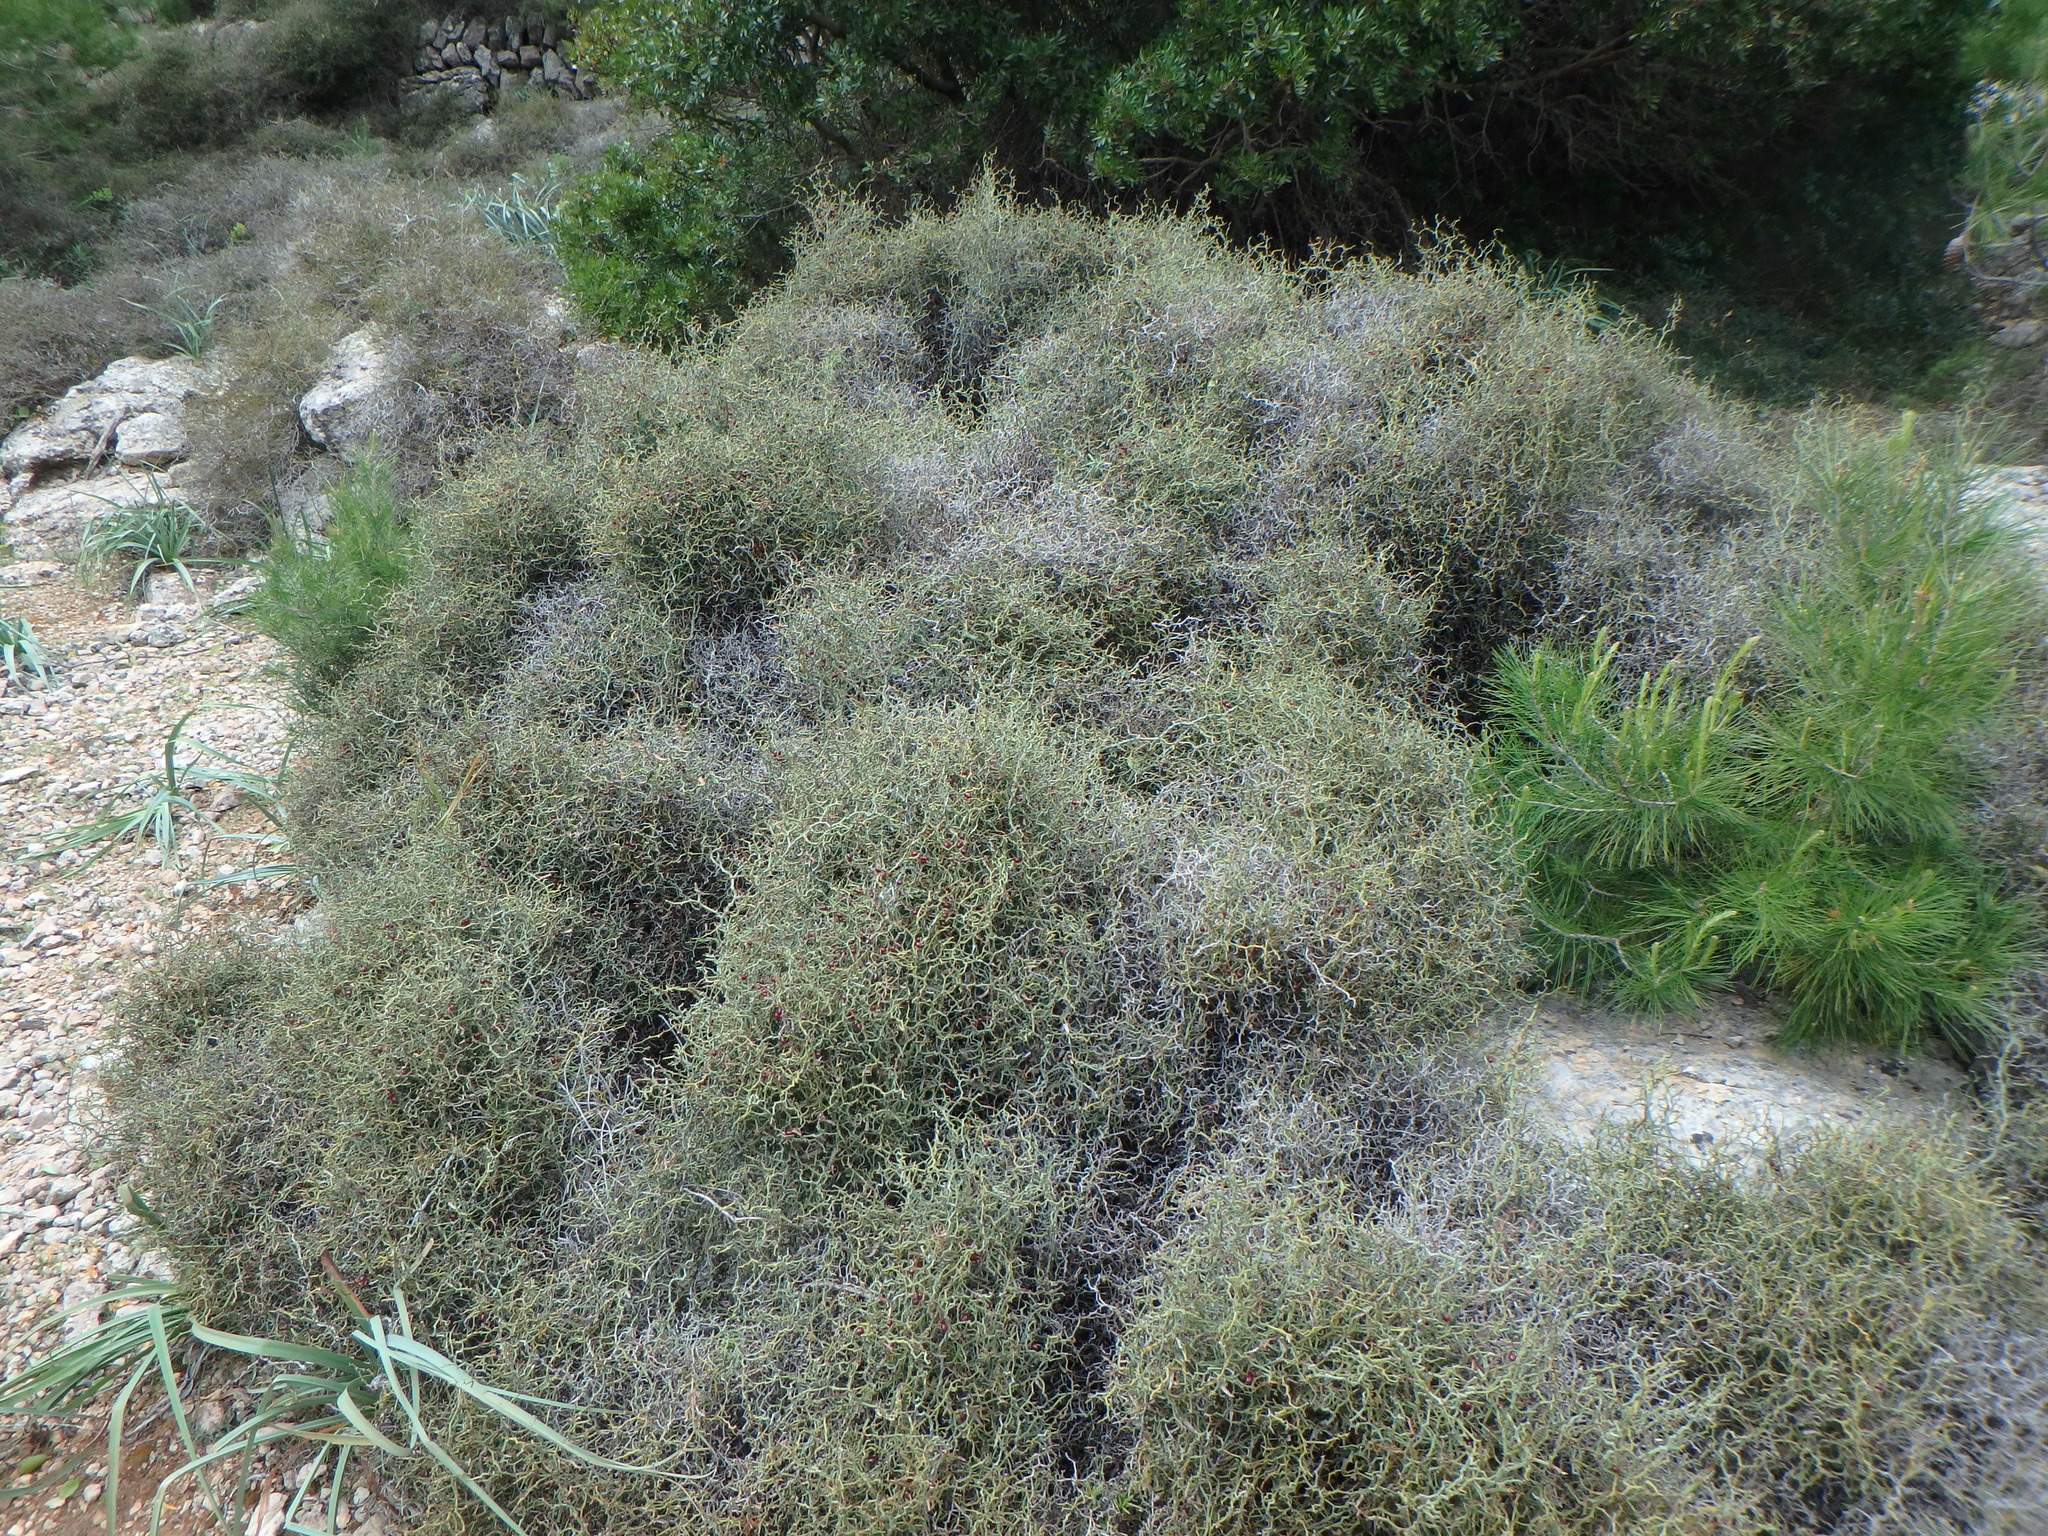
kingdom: Plantae
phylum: Tracheophyta
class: Liliopsida
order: Liliales
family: Smilacaceae
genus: Smilax
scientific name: Smilax aspera
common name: Common smilax
